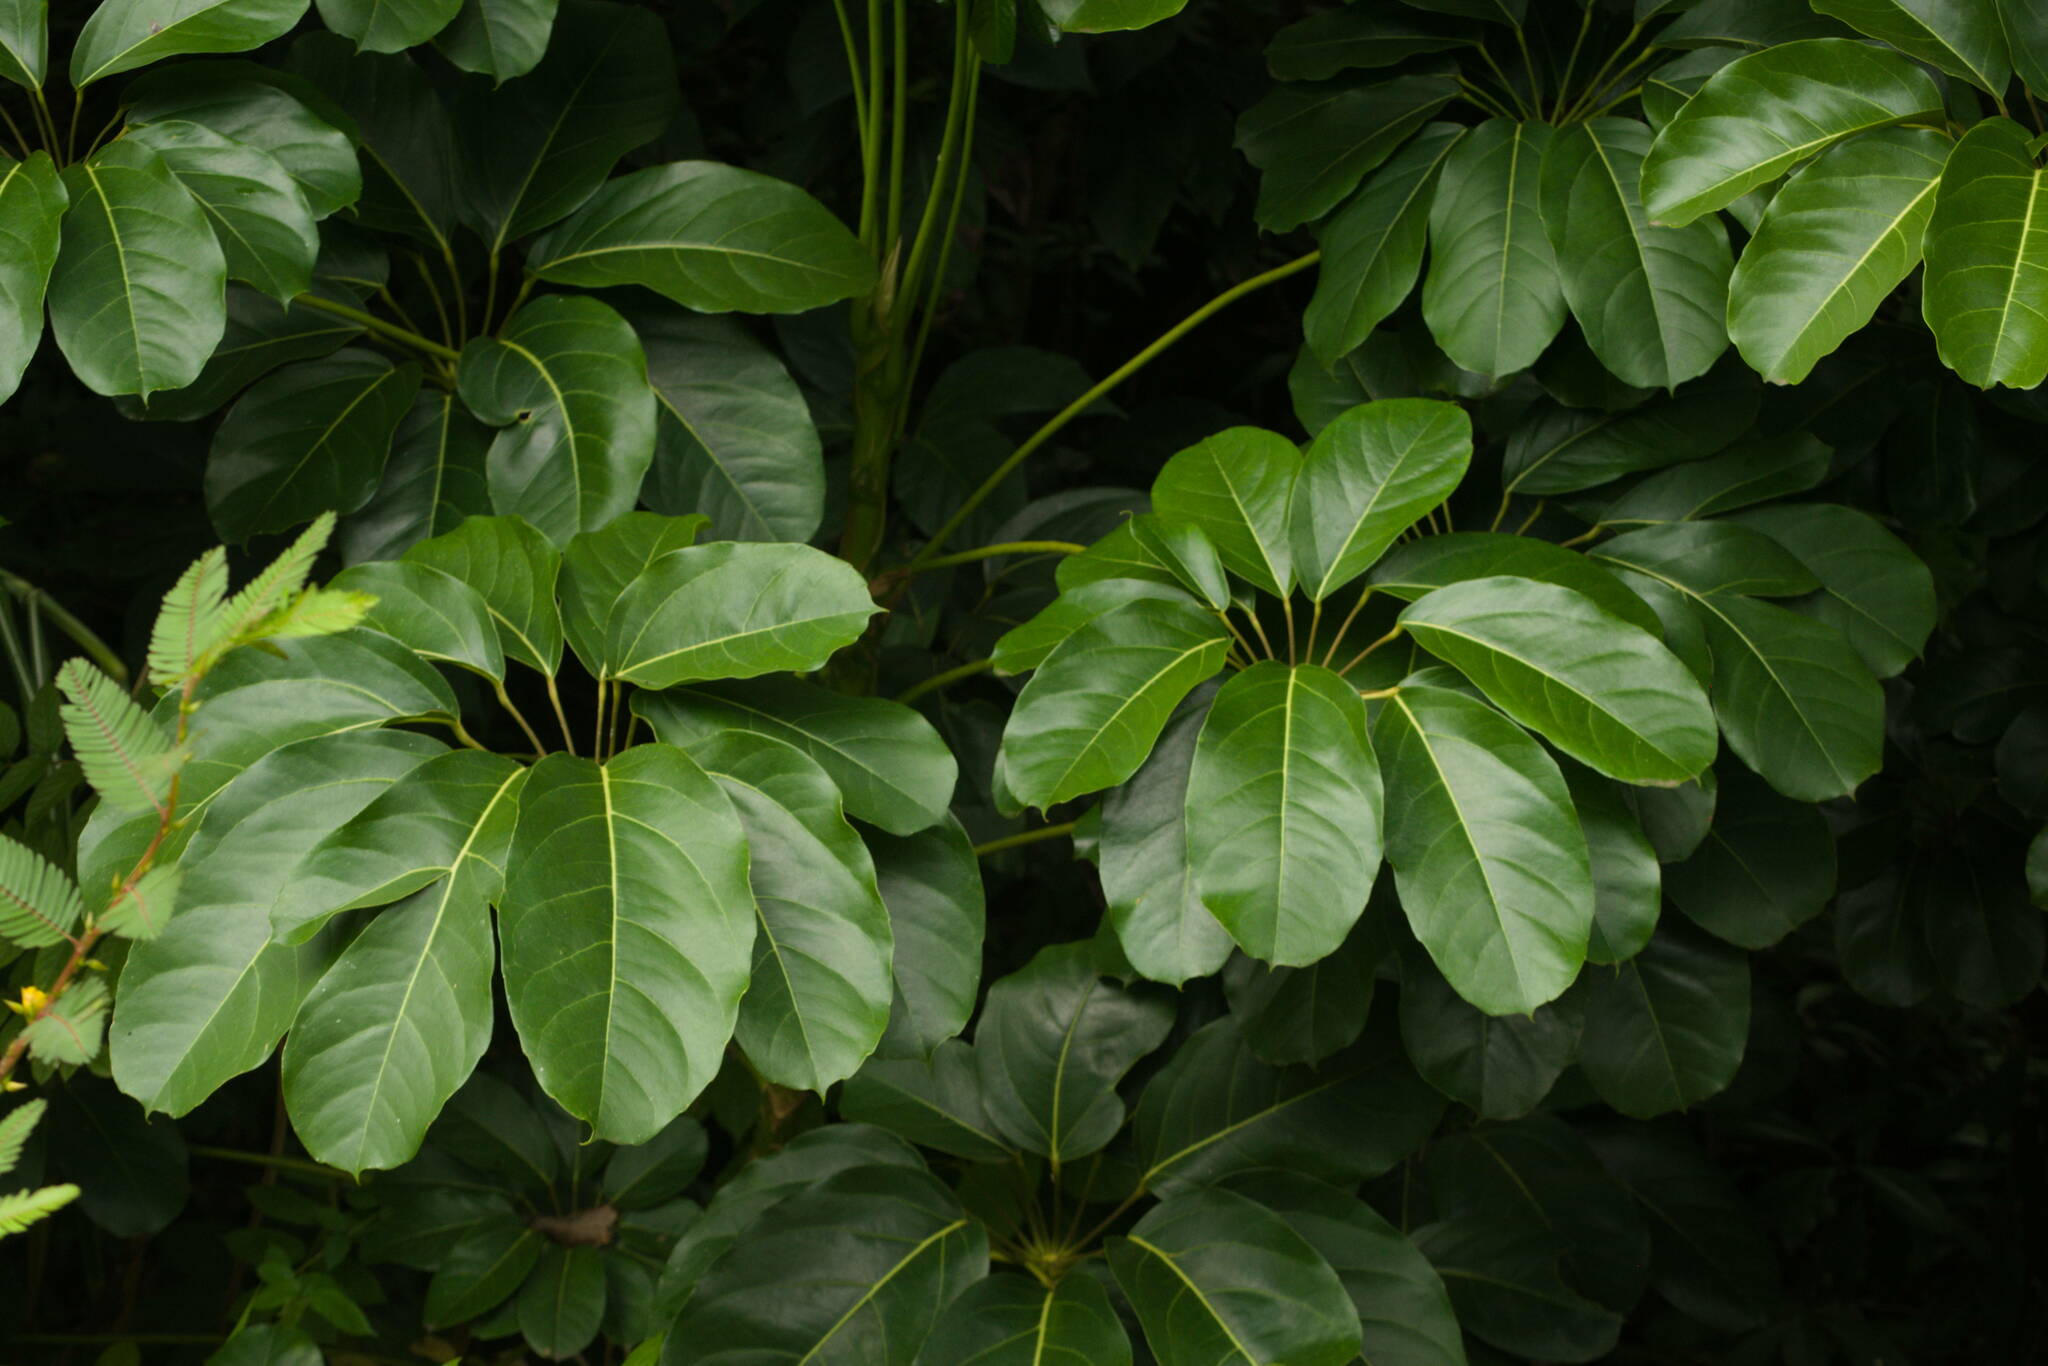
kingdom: Plantae
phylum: Tracheophyta
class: Magnoliopsida
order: Apiales
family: Araliaceae
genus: Heptapleurum
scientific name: Heptapleurum actinophyllum
